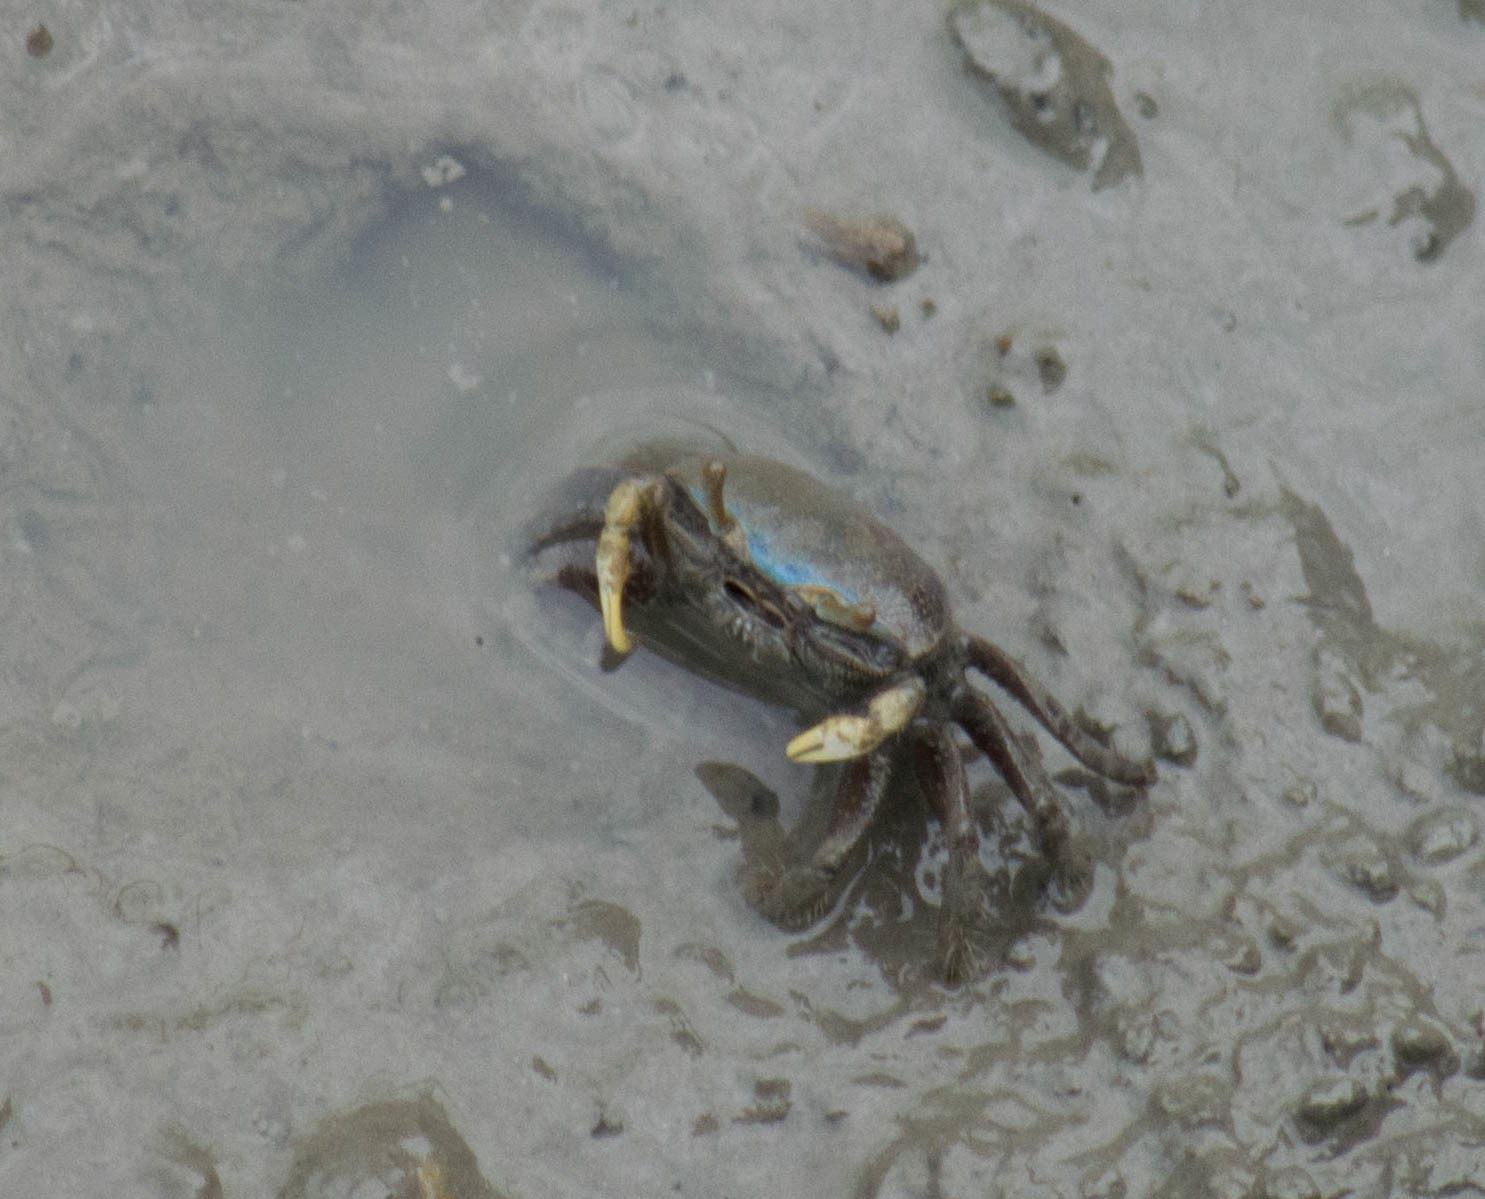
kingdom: Animalia
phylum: Arthropoda
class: Malacostraca
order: Decapoda
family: Ocypodidae
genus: Minuca
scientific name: Minuca pugnax
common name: Mud fiddler crab
